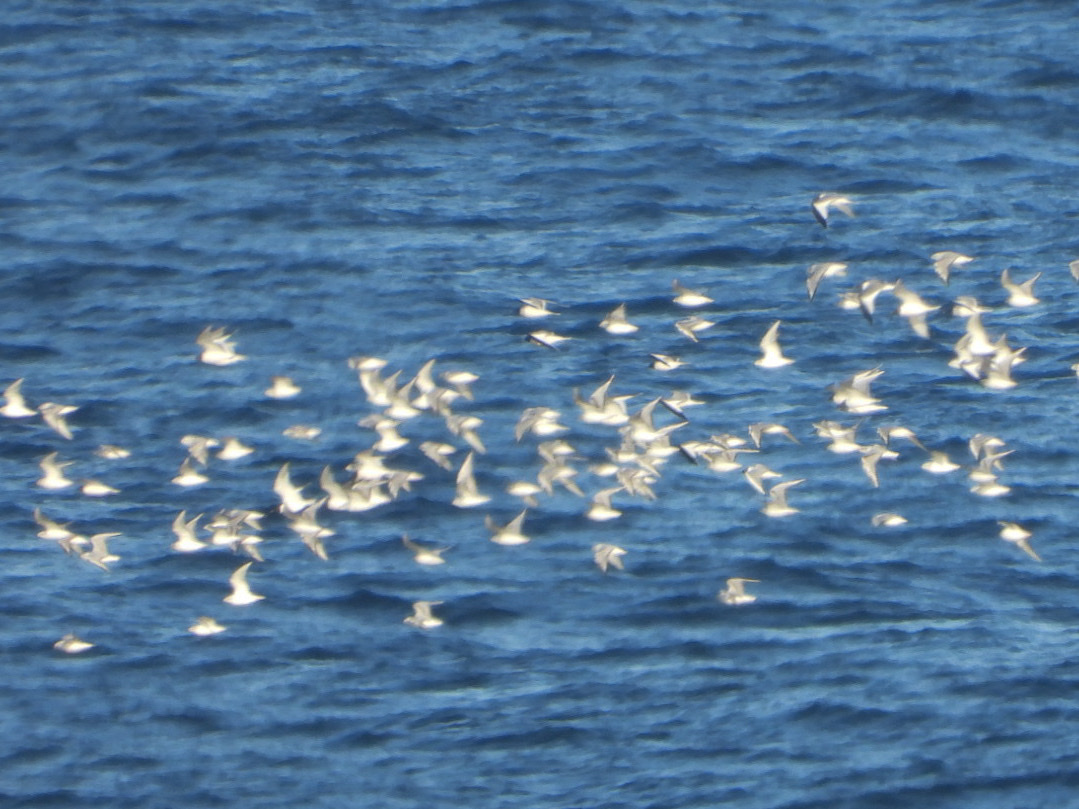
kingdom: Animalia
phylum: Chordata
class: Aves
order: Charadriiformes
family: Laridae
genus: Xema
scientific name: Xema sabini
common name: Sabine's gull
